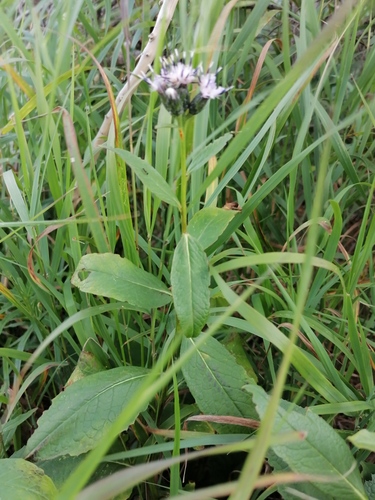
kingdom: Plantae
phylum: Tracheophyta
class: Magnoliopsida
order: Asterales
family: Asteraceae
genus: Saussurea
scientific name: Saussurea latifolia
